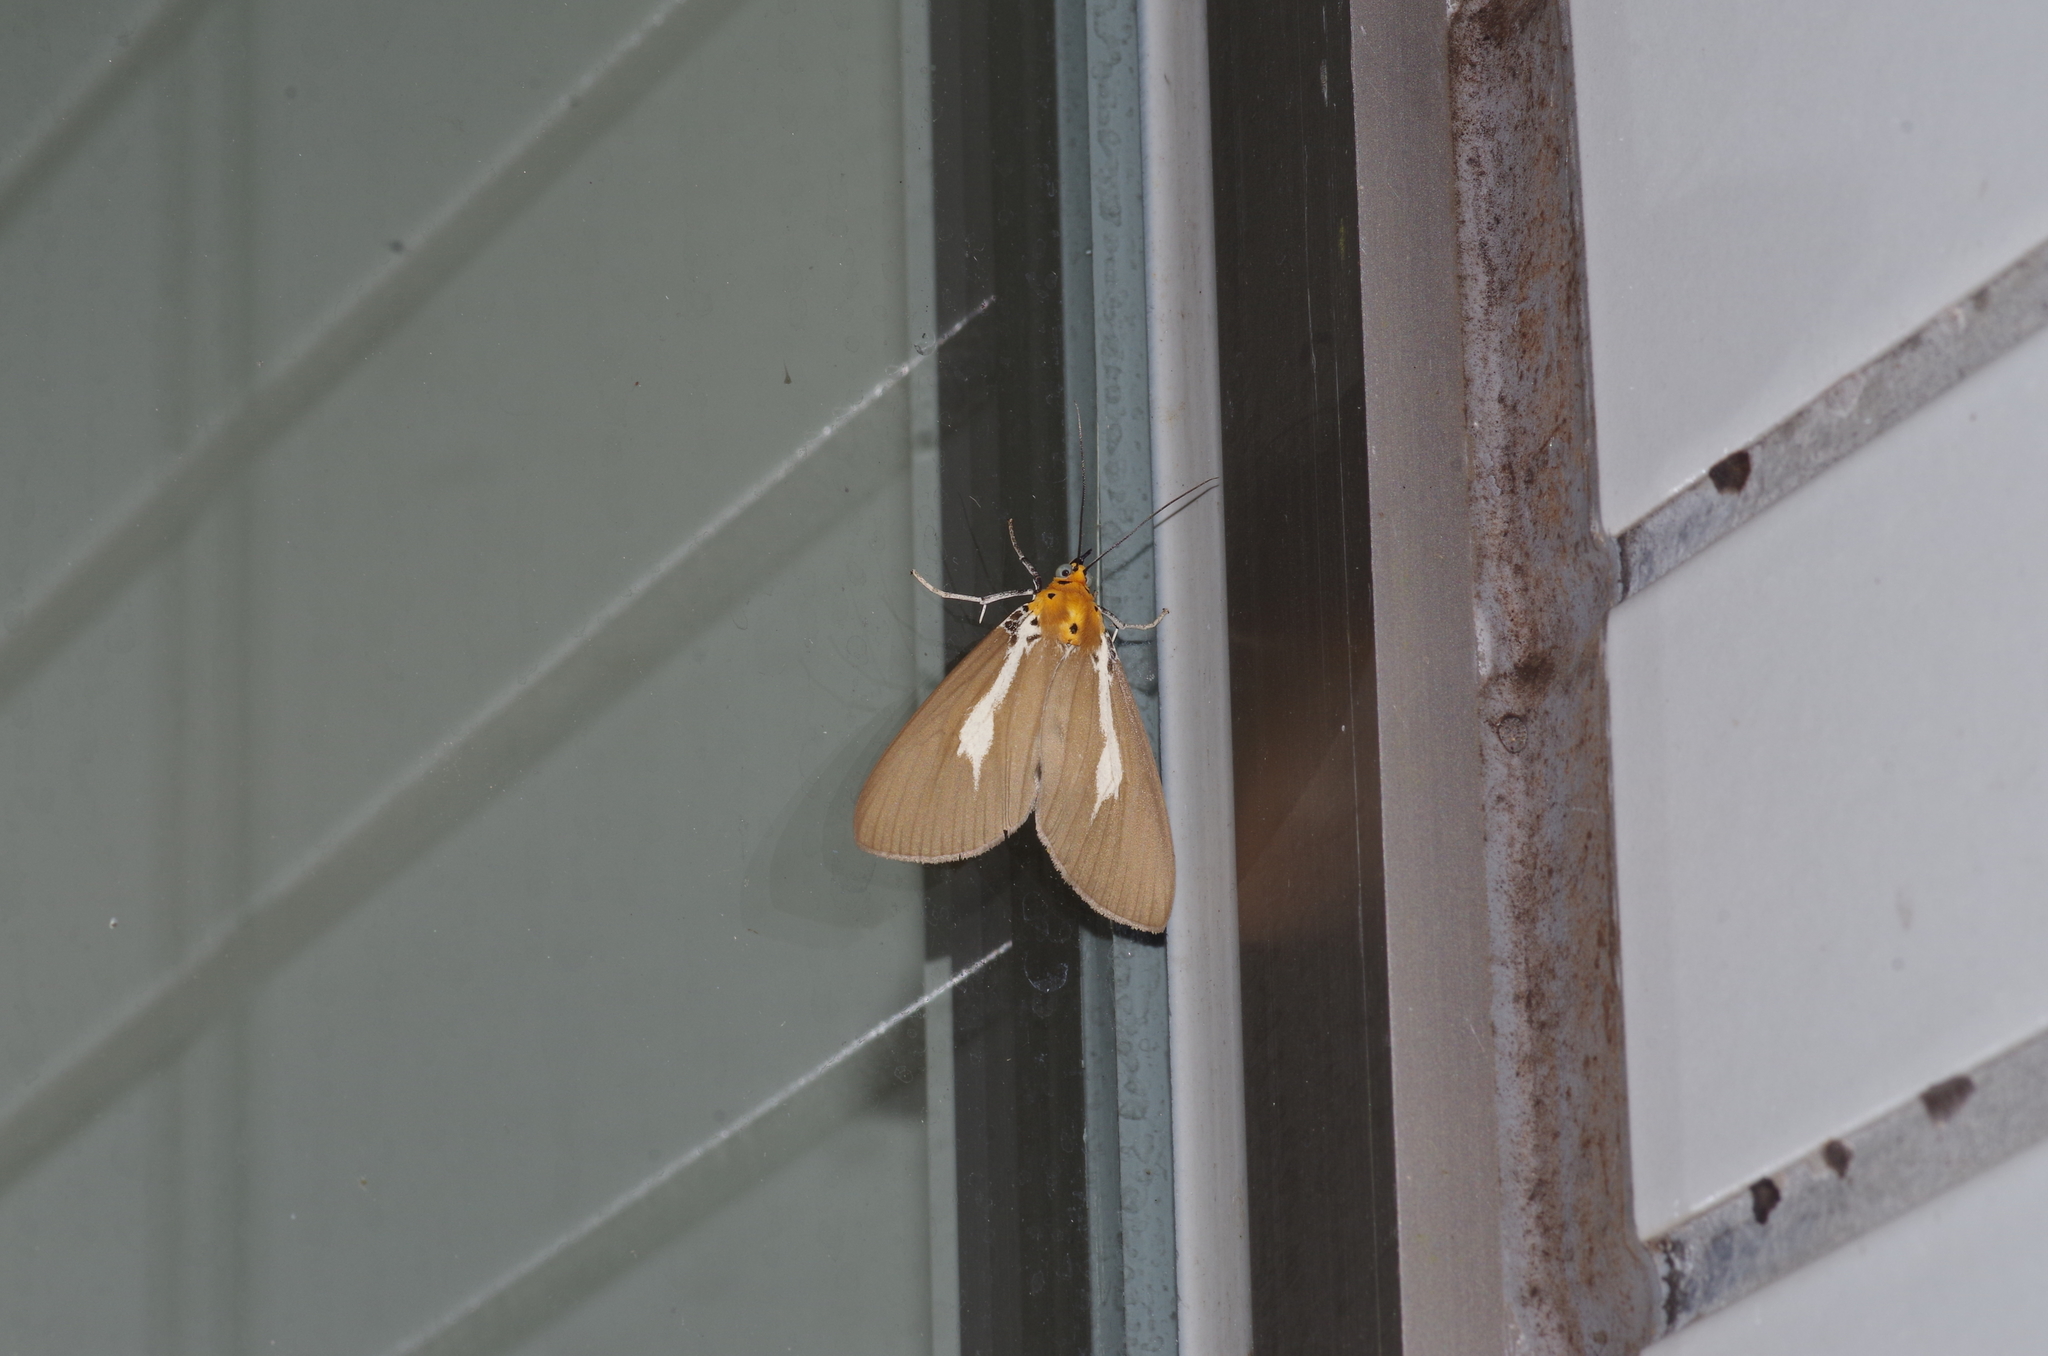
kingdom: Animalia
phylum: Arthropoda
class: Insecta
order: Lepidoptera
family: Erebidae
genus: Asota
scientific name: Asota heliconia
